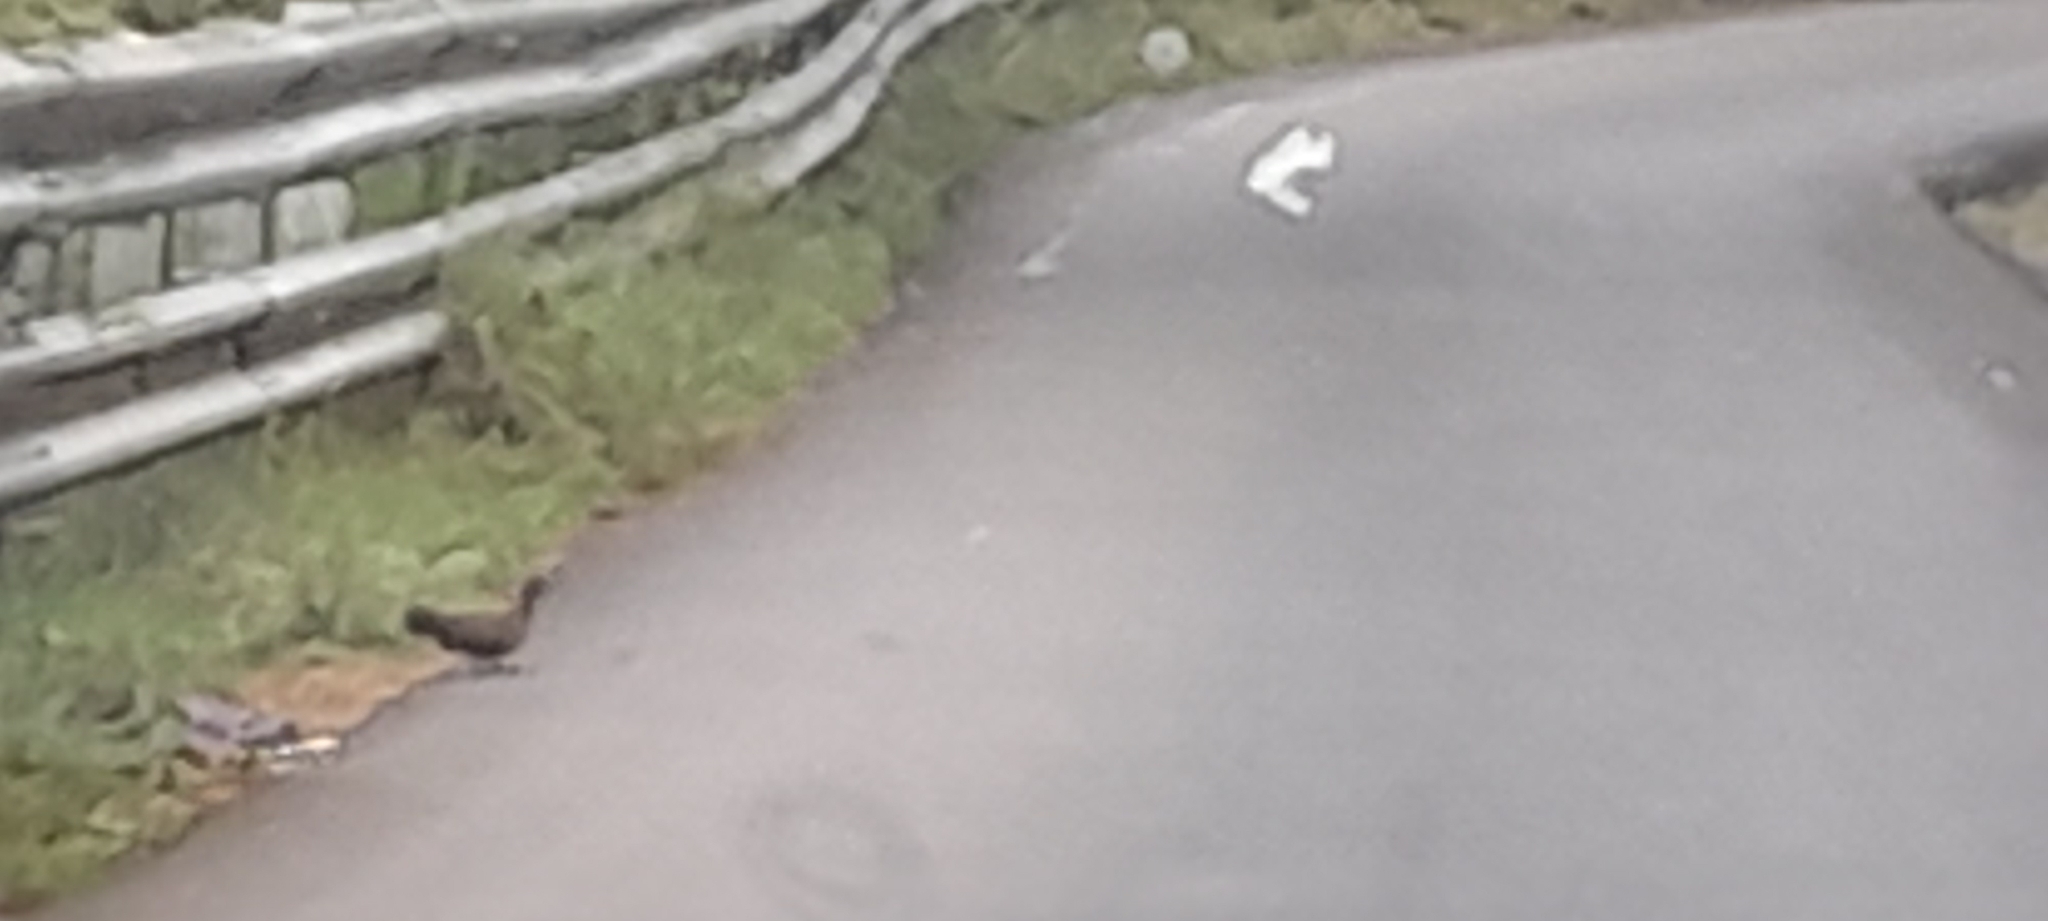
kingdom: Animalia
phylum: Chordata
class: Aves
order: Galliformes
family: Phasianidae
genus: Galloperdix
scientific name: Galloperdix lunulata
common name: Painted spurfowl
